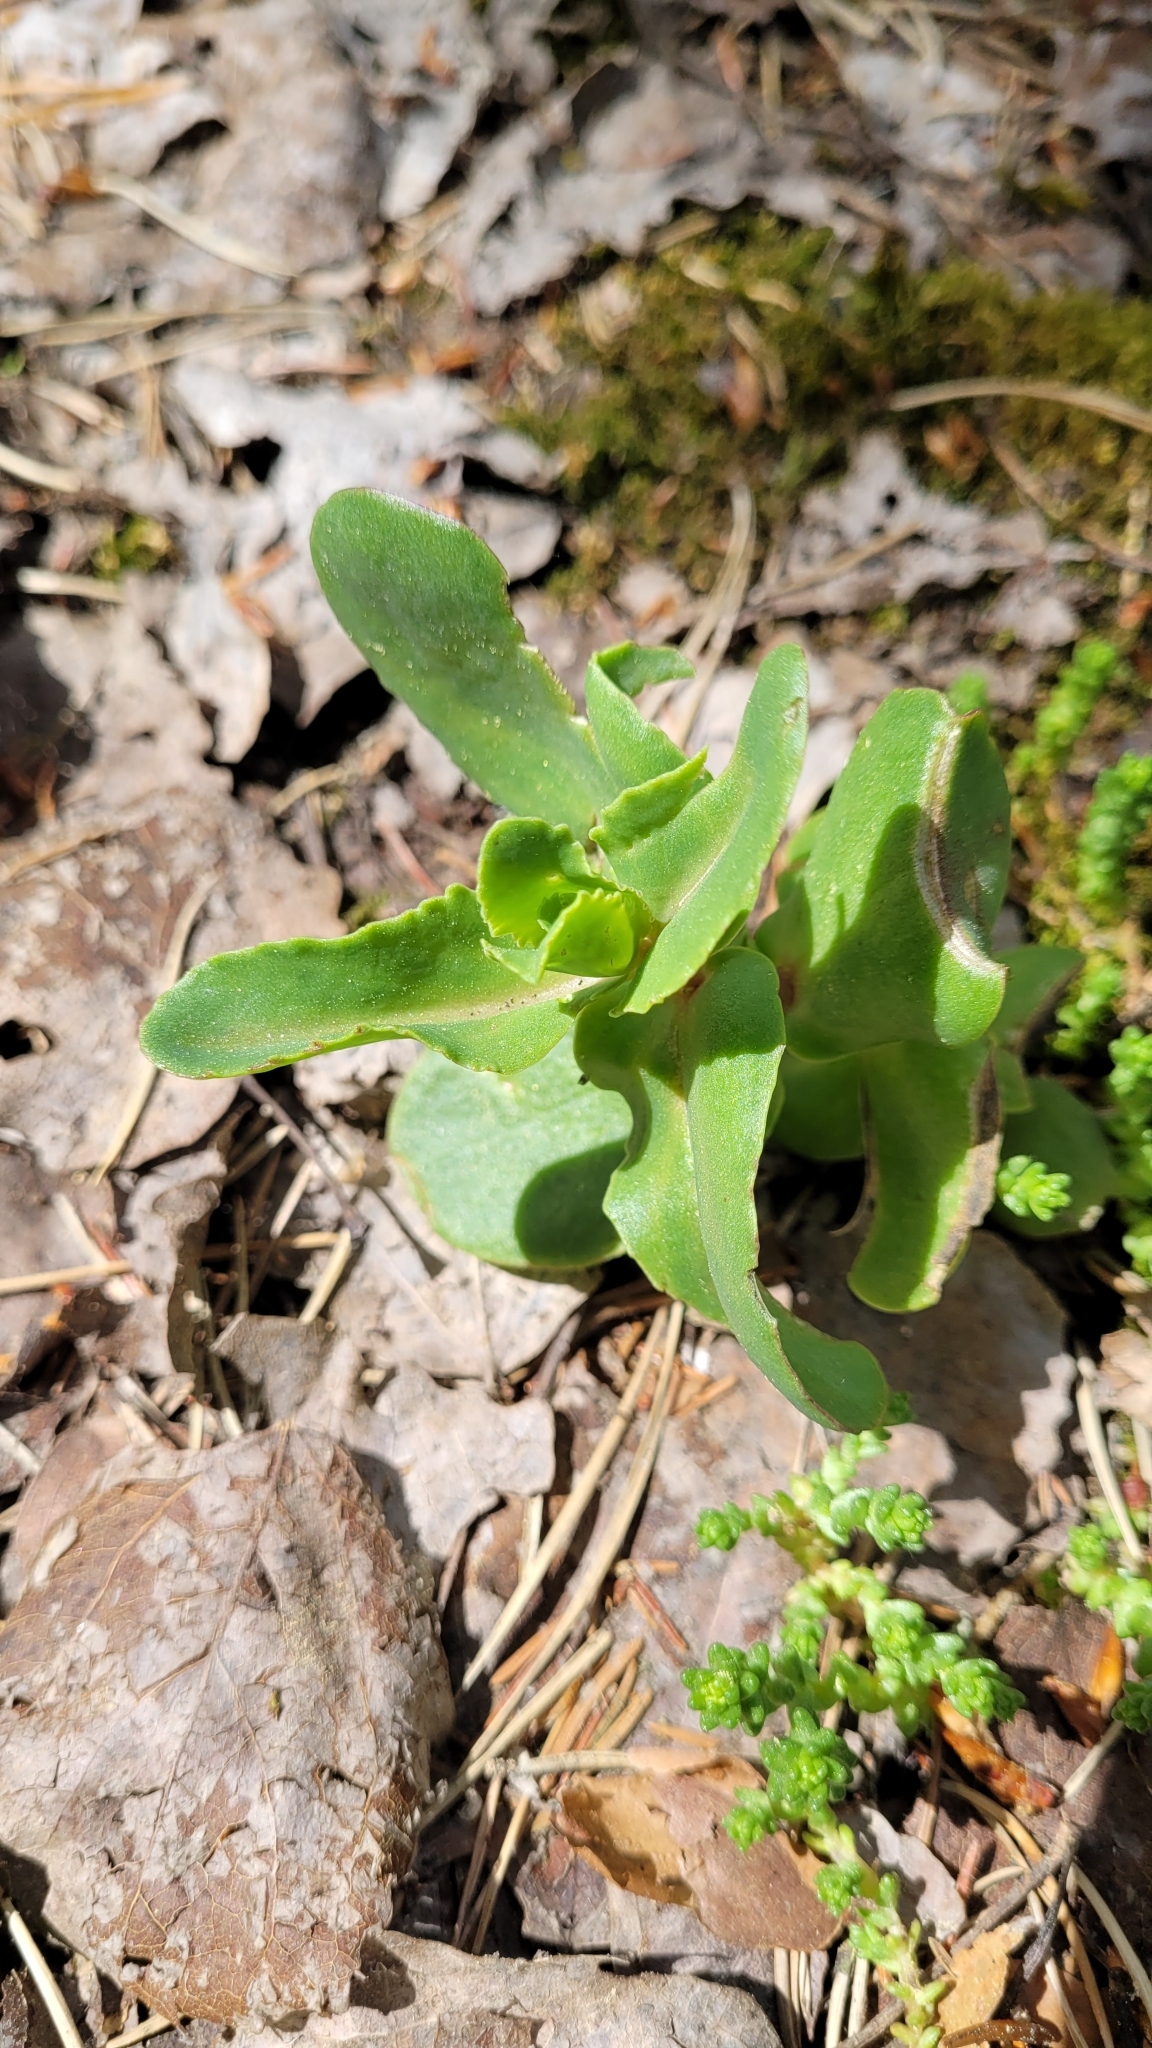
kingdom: Plantae
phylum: Tracheophyta
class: Magnoliopsida
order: Saxifragales
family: Crassulaceae
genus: Hylotelephium
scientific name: Hylotelephium maximum
